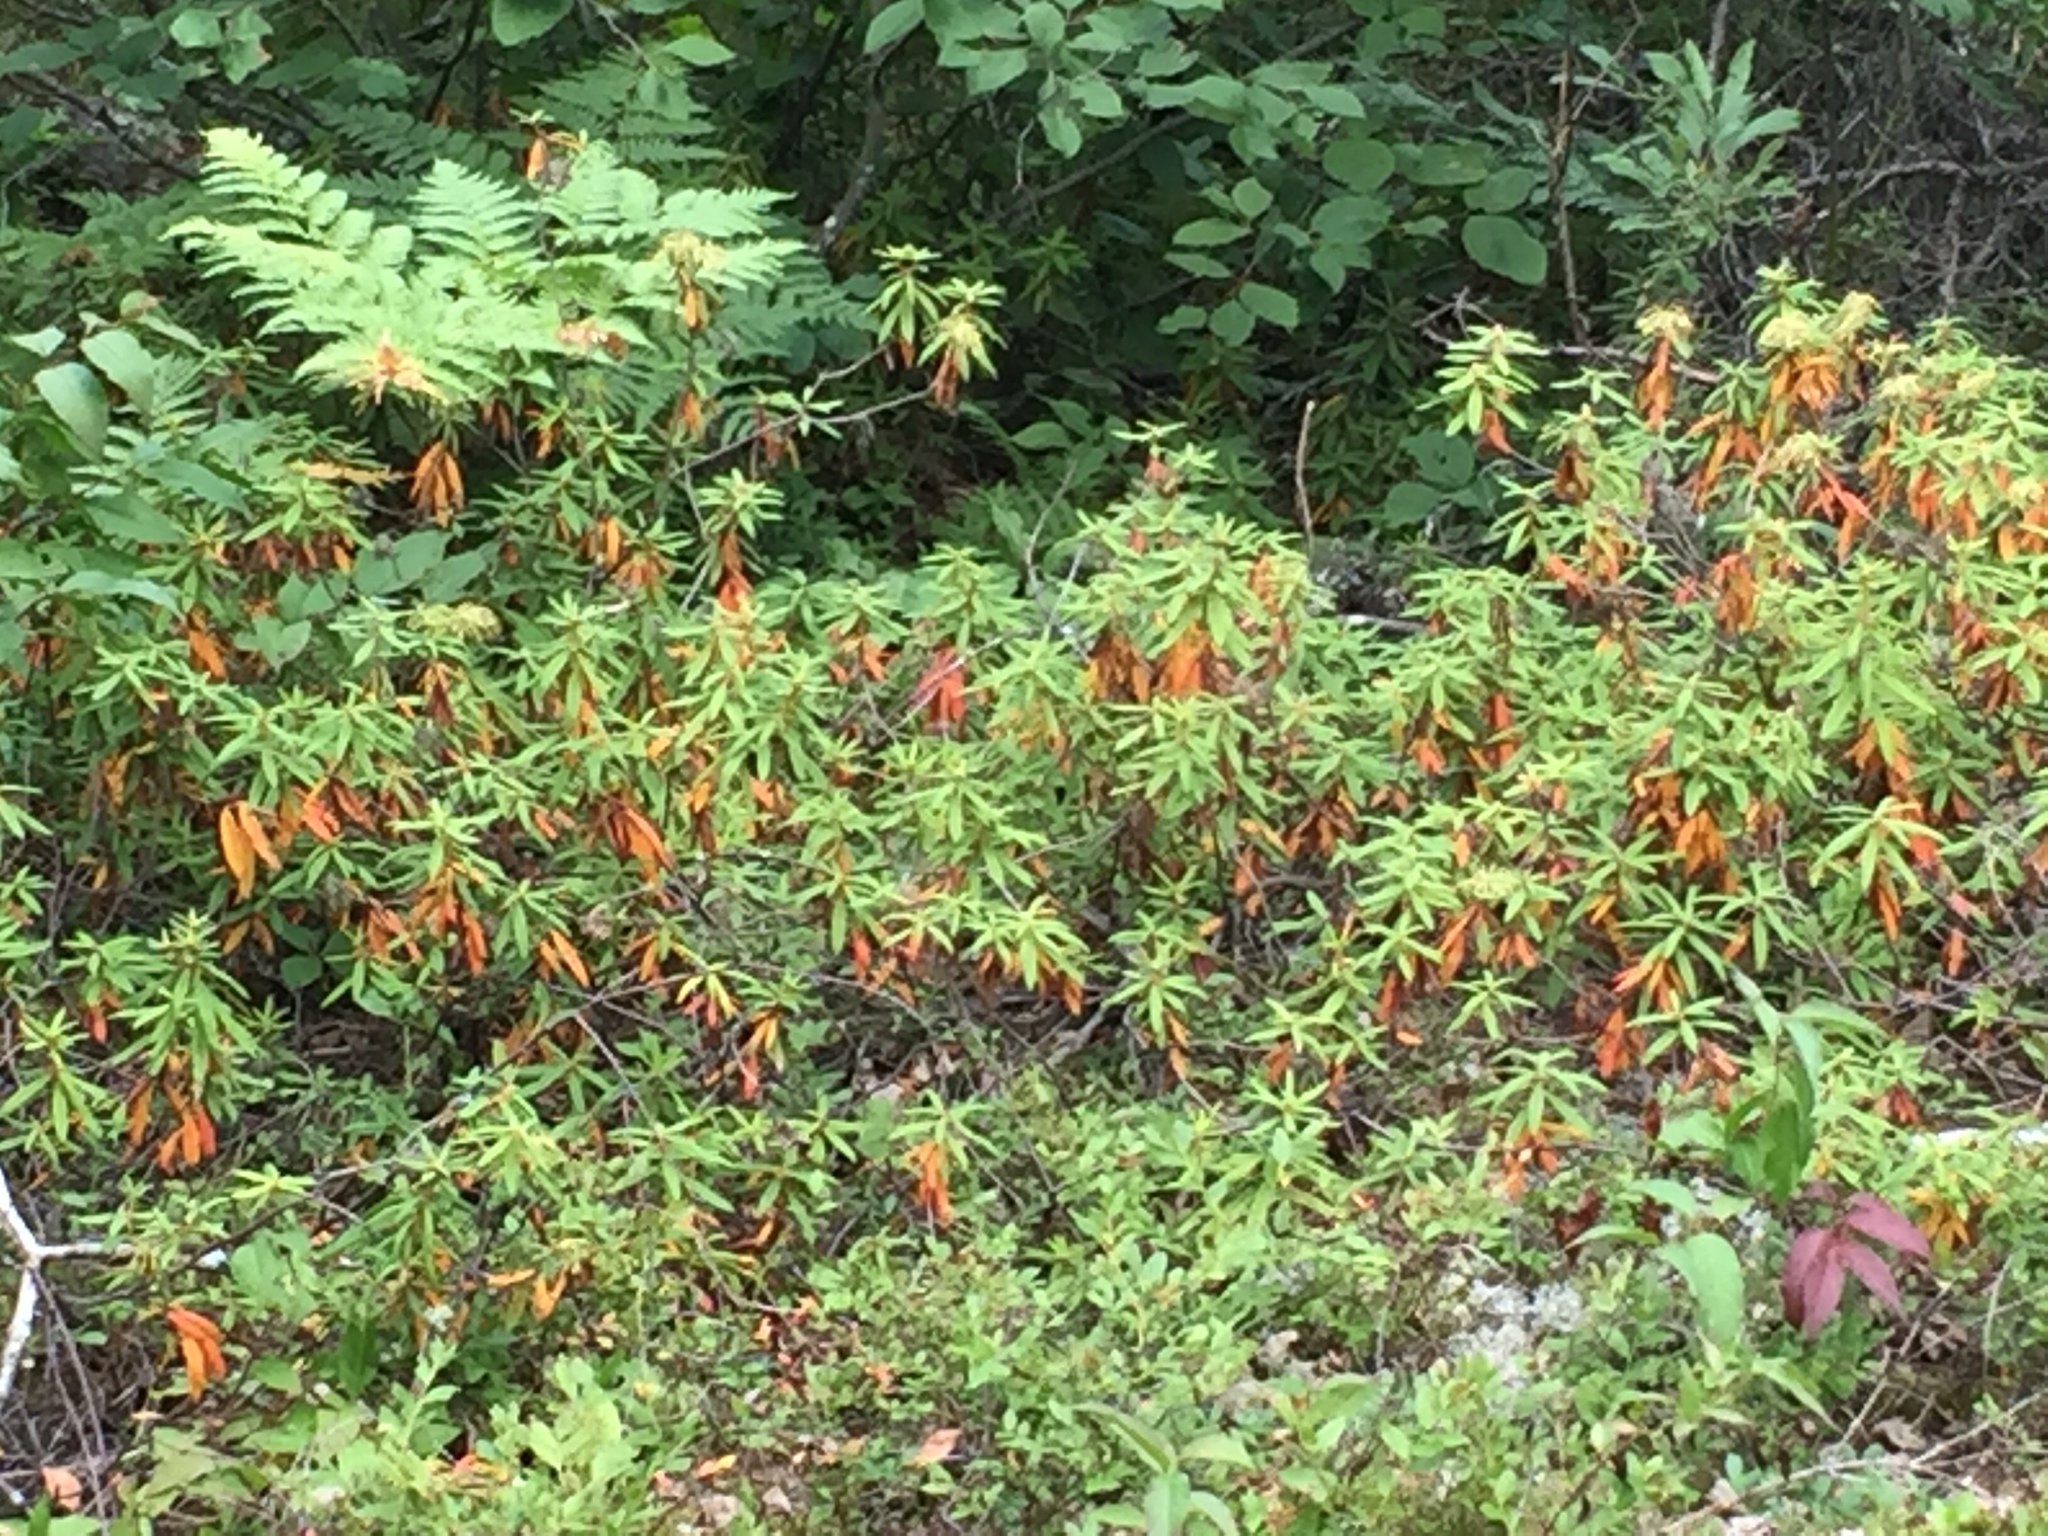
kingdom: Plantae
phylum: Tracheophyta
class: Magnoliopsida
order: Ericales
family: Ericaceae
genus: Rhododendron
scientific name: Rhododendron groenlandicum
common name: Bog labrador tea
